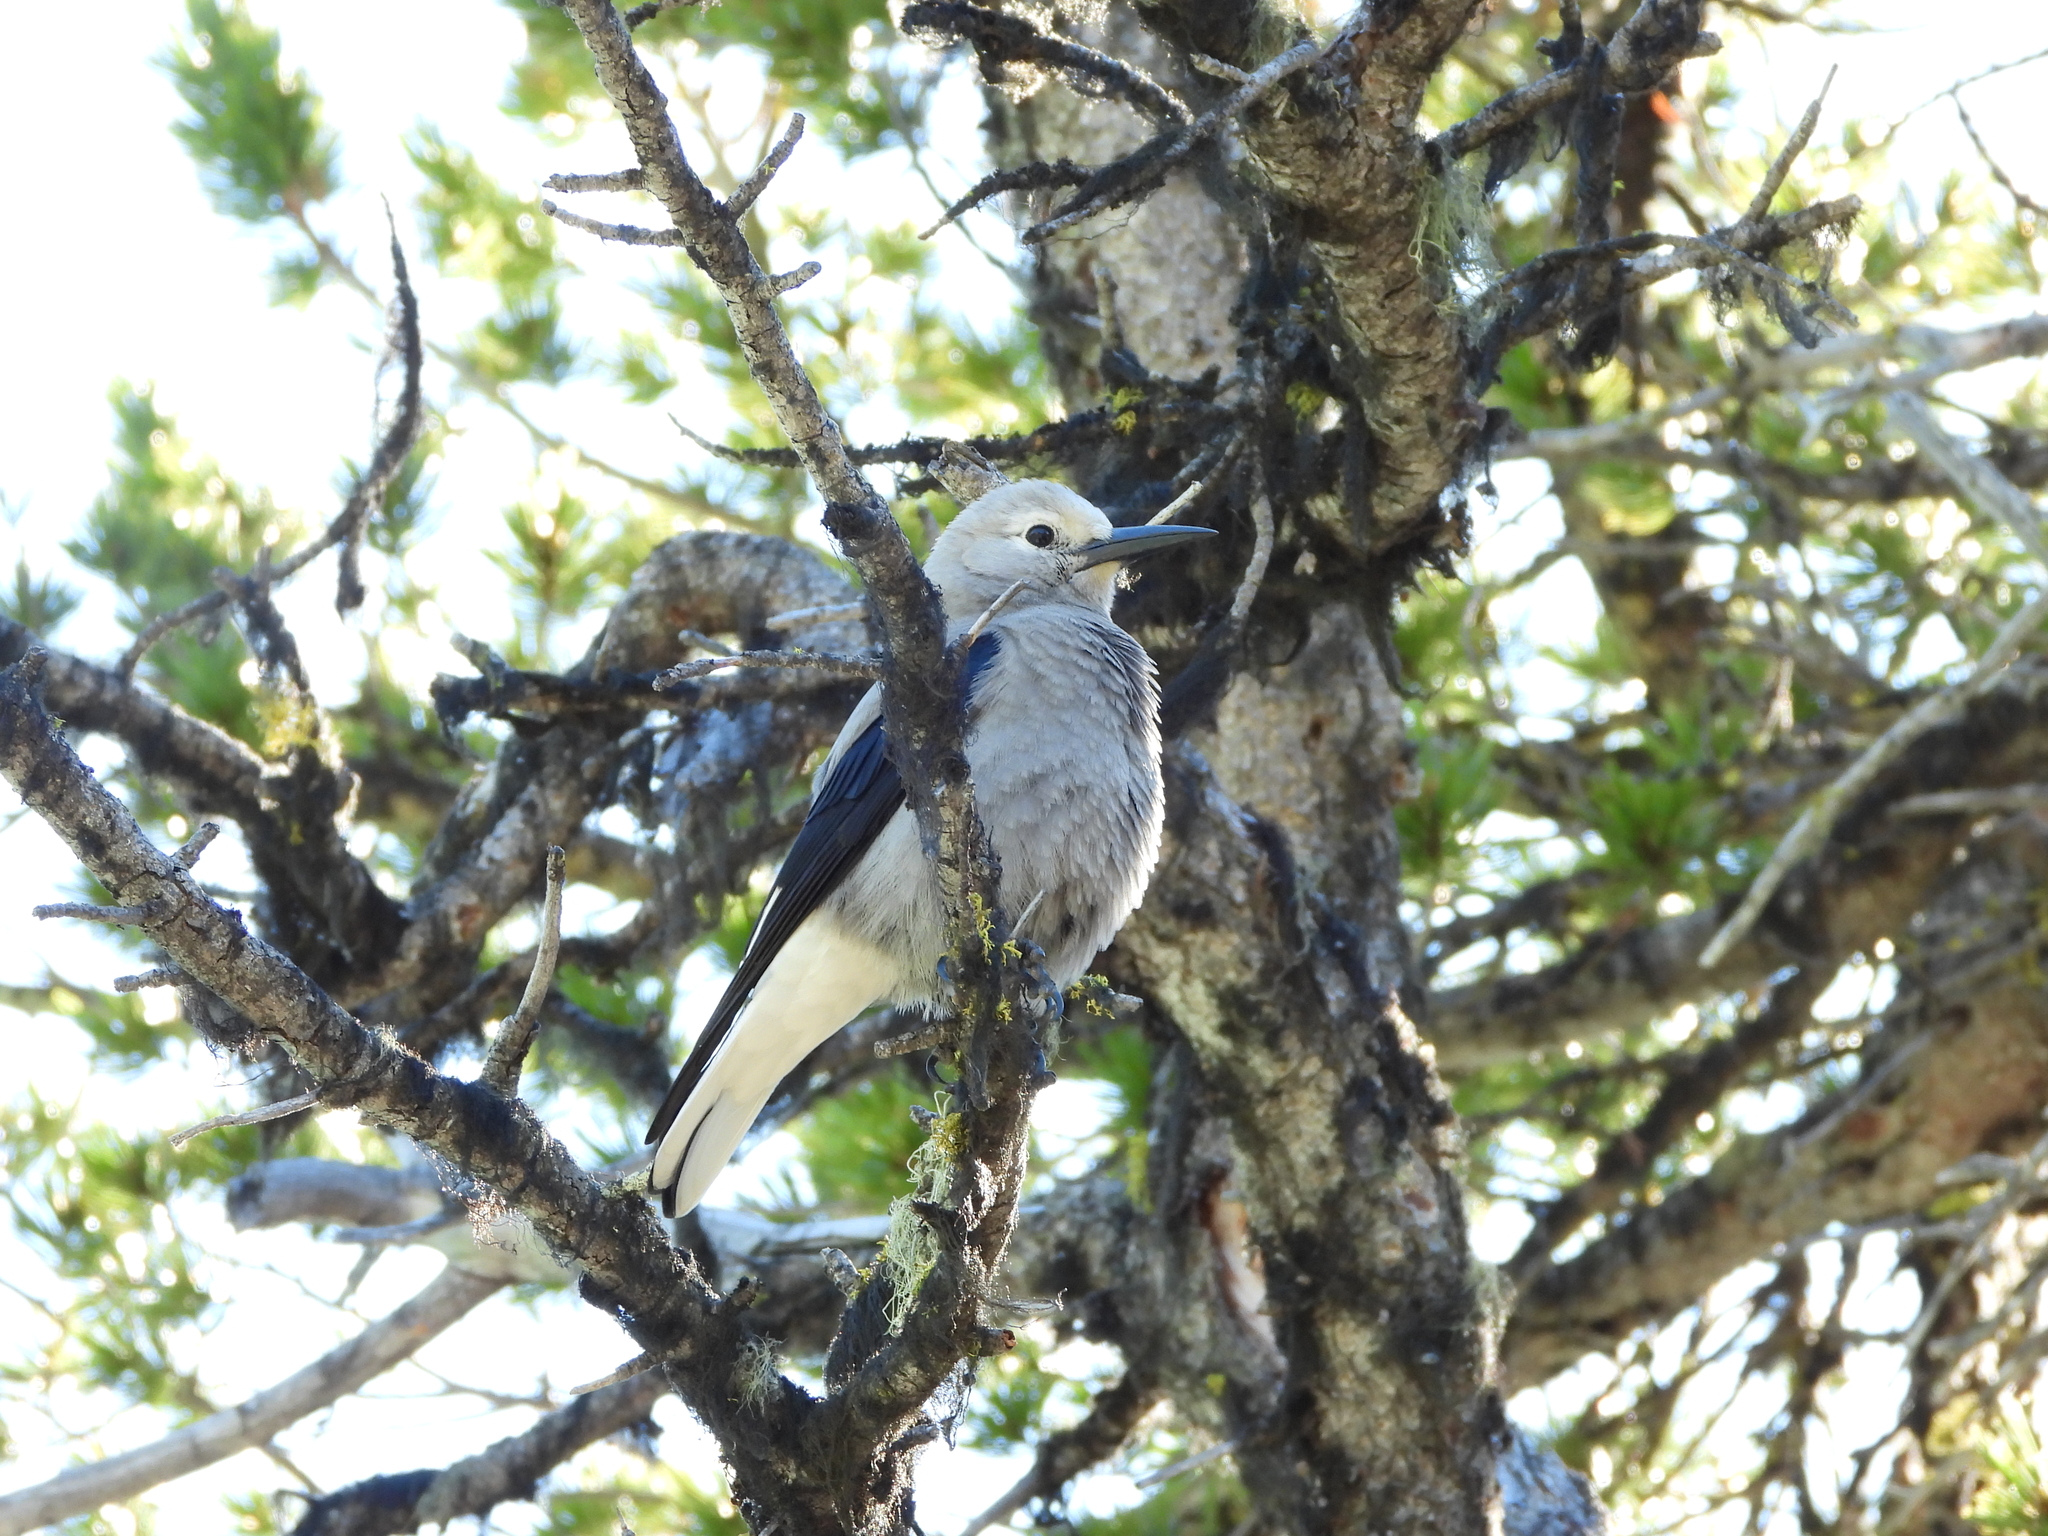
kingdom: Animalia
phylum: Chordata
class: Aves
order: Passeriformes
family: Corvidae
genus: Nucifraga
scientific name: Nucifraga columbiana
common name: Clark's nutcracker
